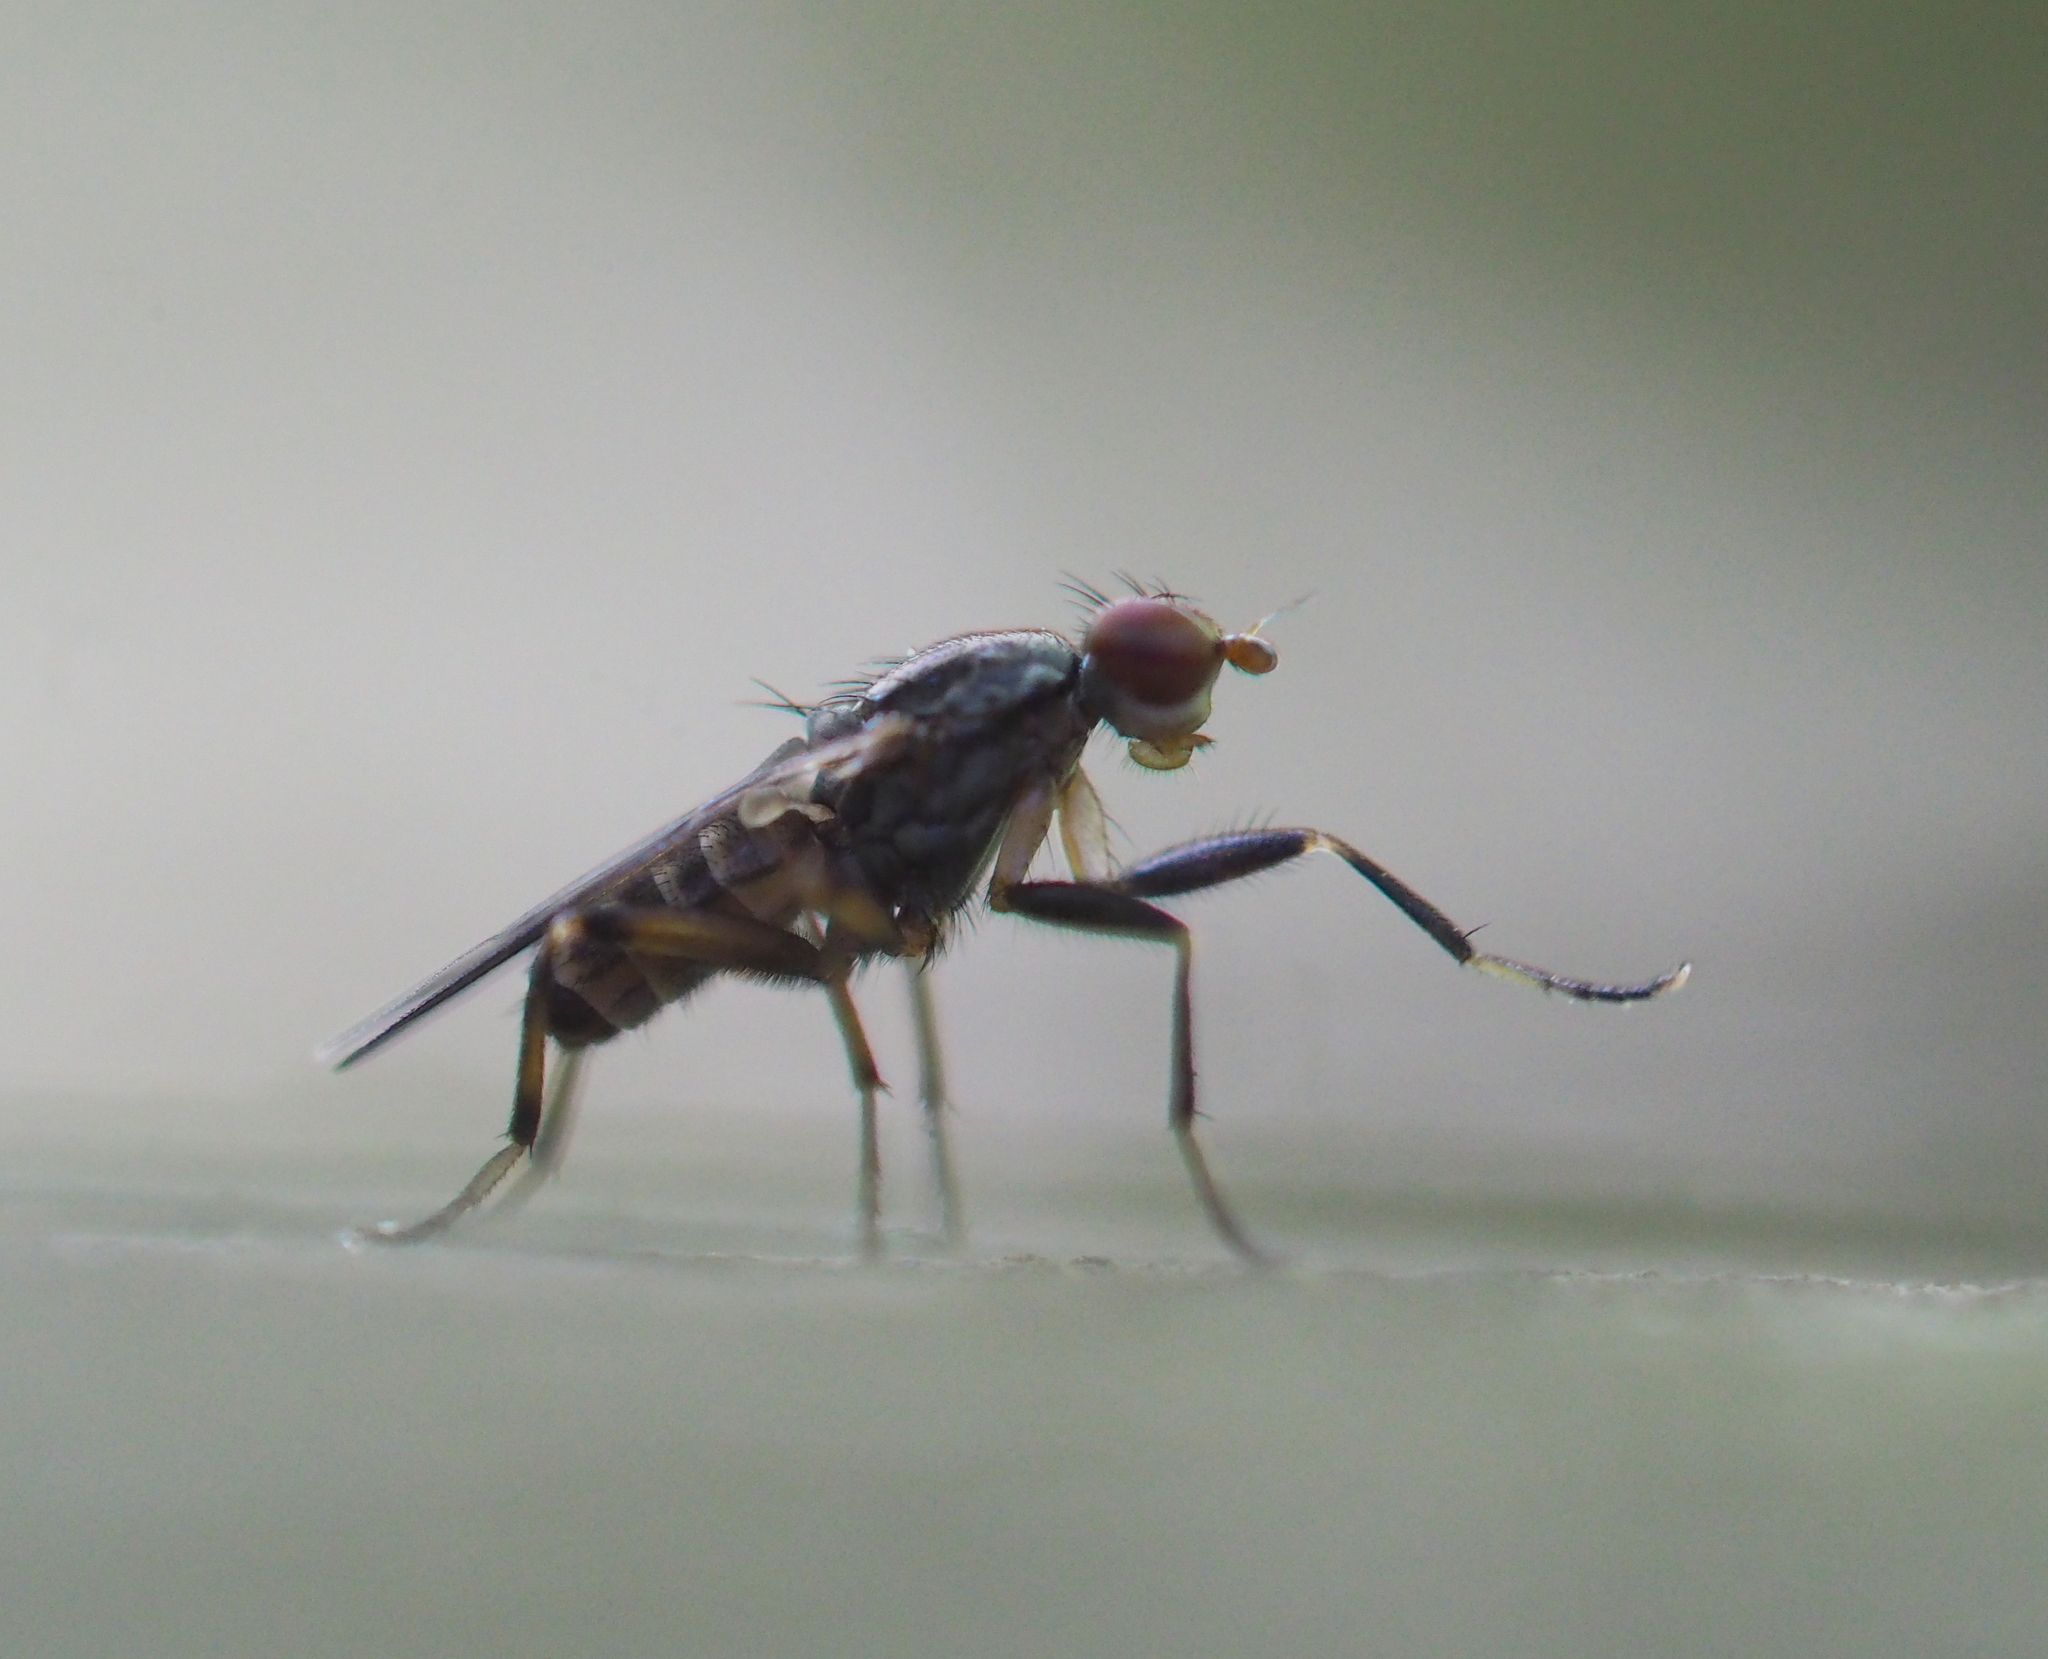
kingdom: Animalia
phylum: Arthropoda
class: Insecta
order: Diptera
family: Sciomyzidae
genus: Pherbellia
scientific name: Pherbellia annulipes
